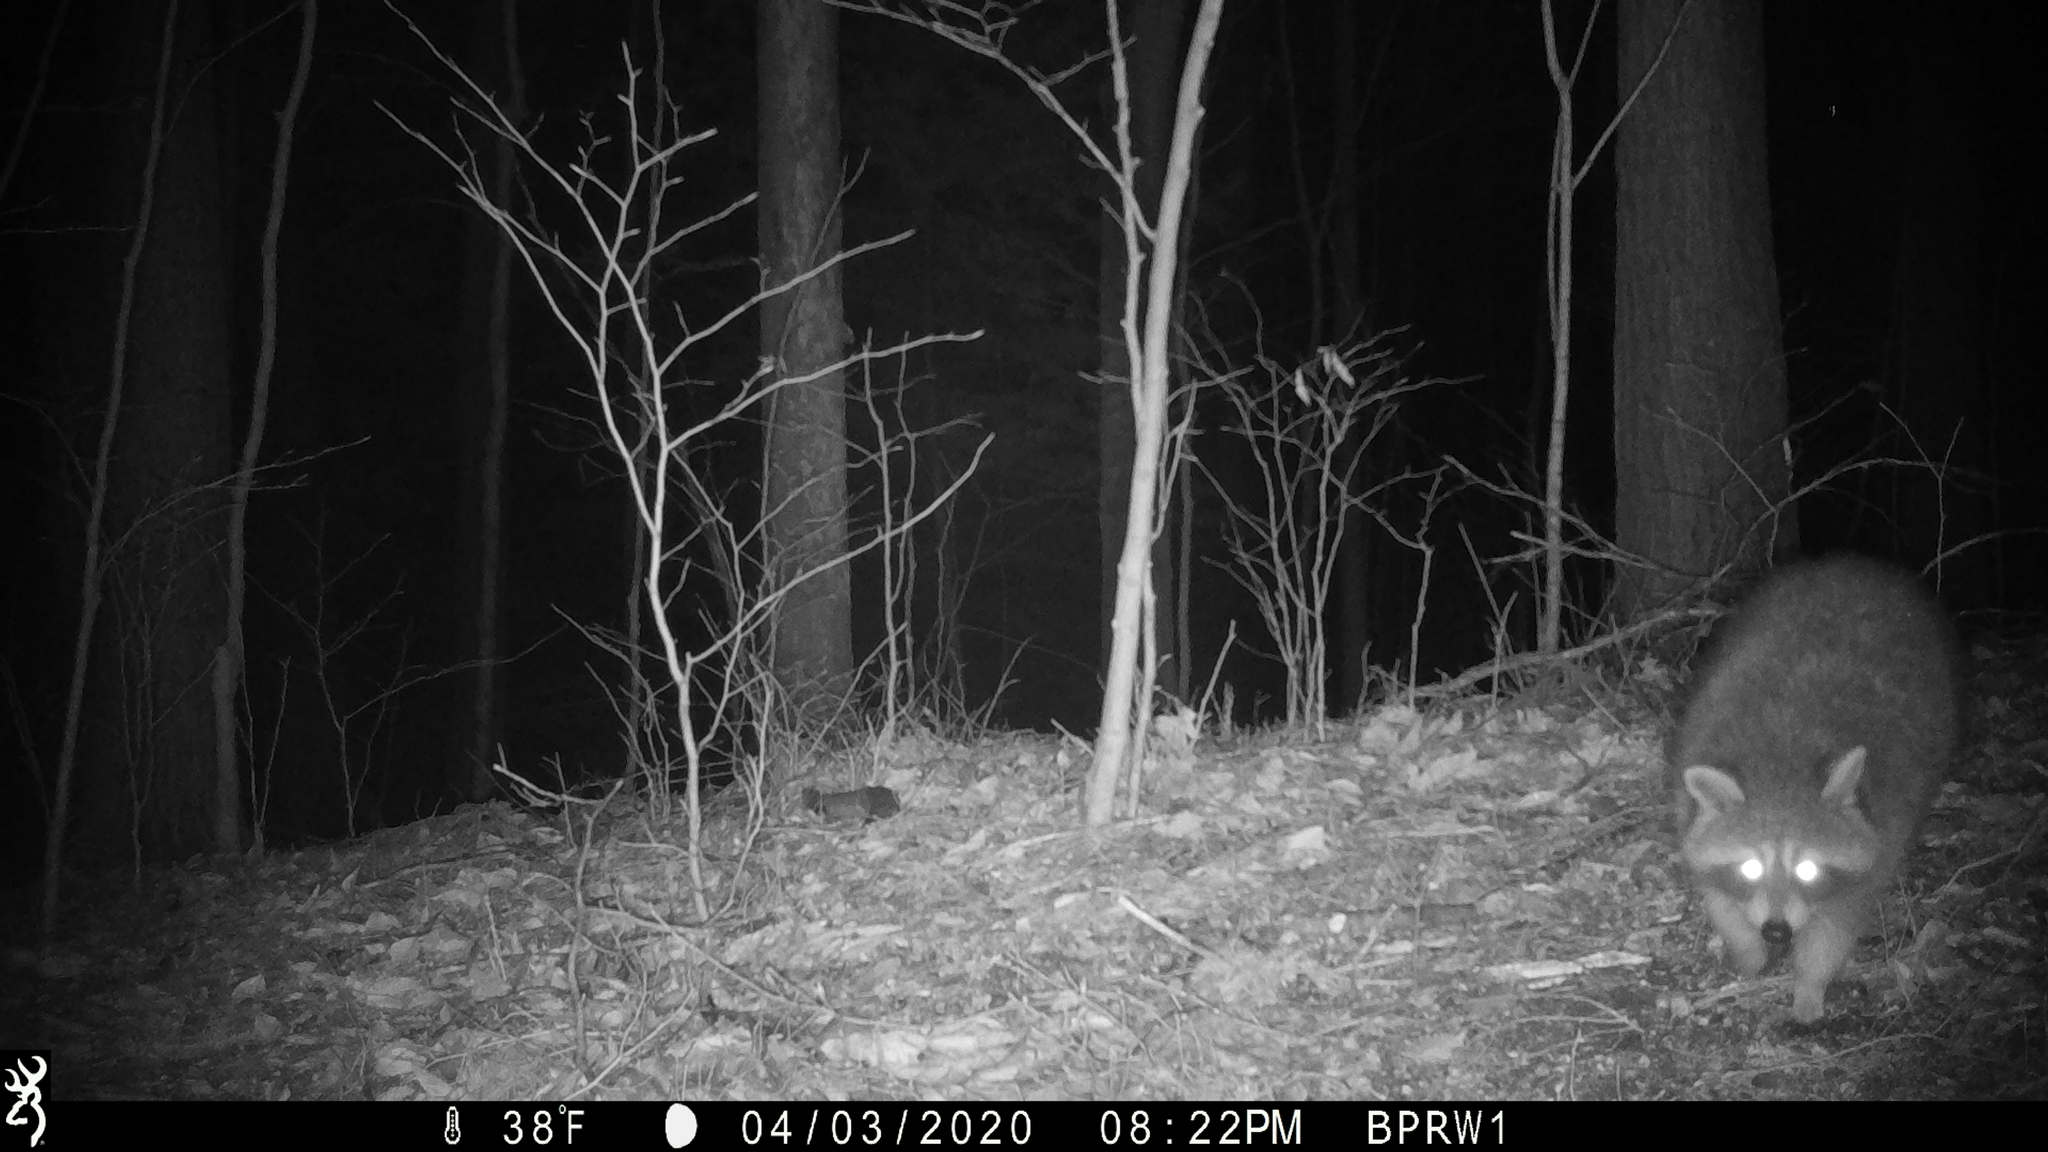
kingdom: Animalia
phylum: Chordata
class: Mammalia
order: Carnivora
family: Procyonidae
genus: Procyon
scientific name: Procyon lotor
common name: Raccoon
